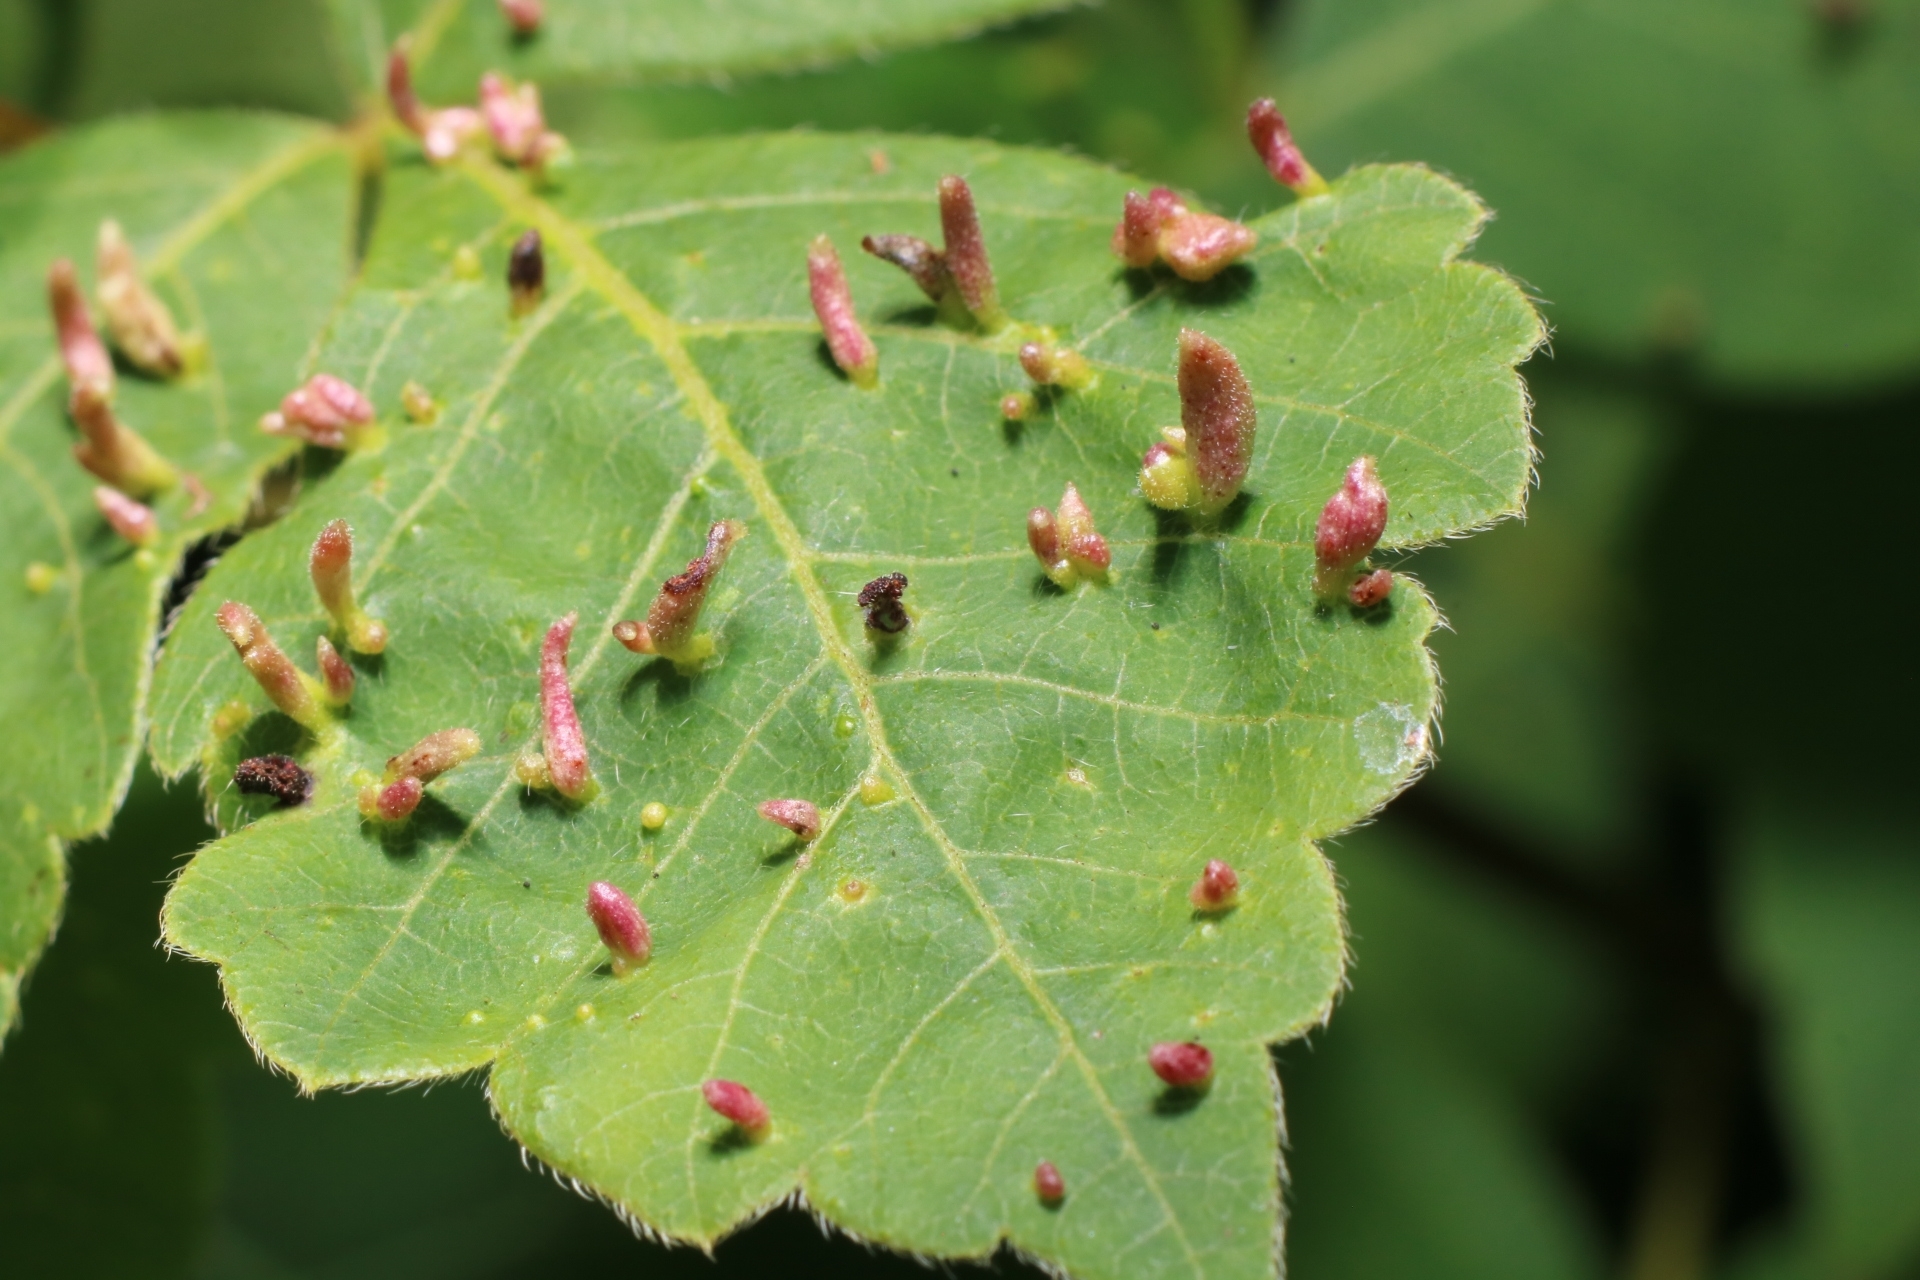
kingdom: Animalia
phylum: Arthropoda
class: Arachnida
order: Trombidiformes
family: Eriophyidae
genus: Aculops
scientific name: Aculops
